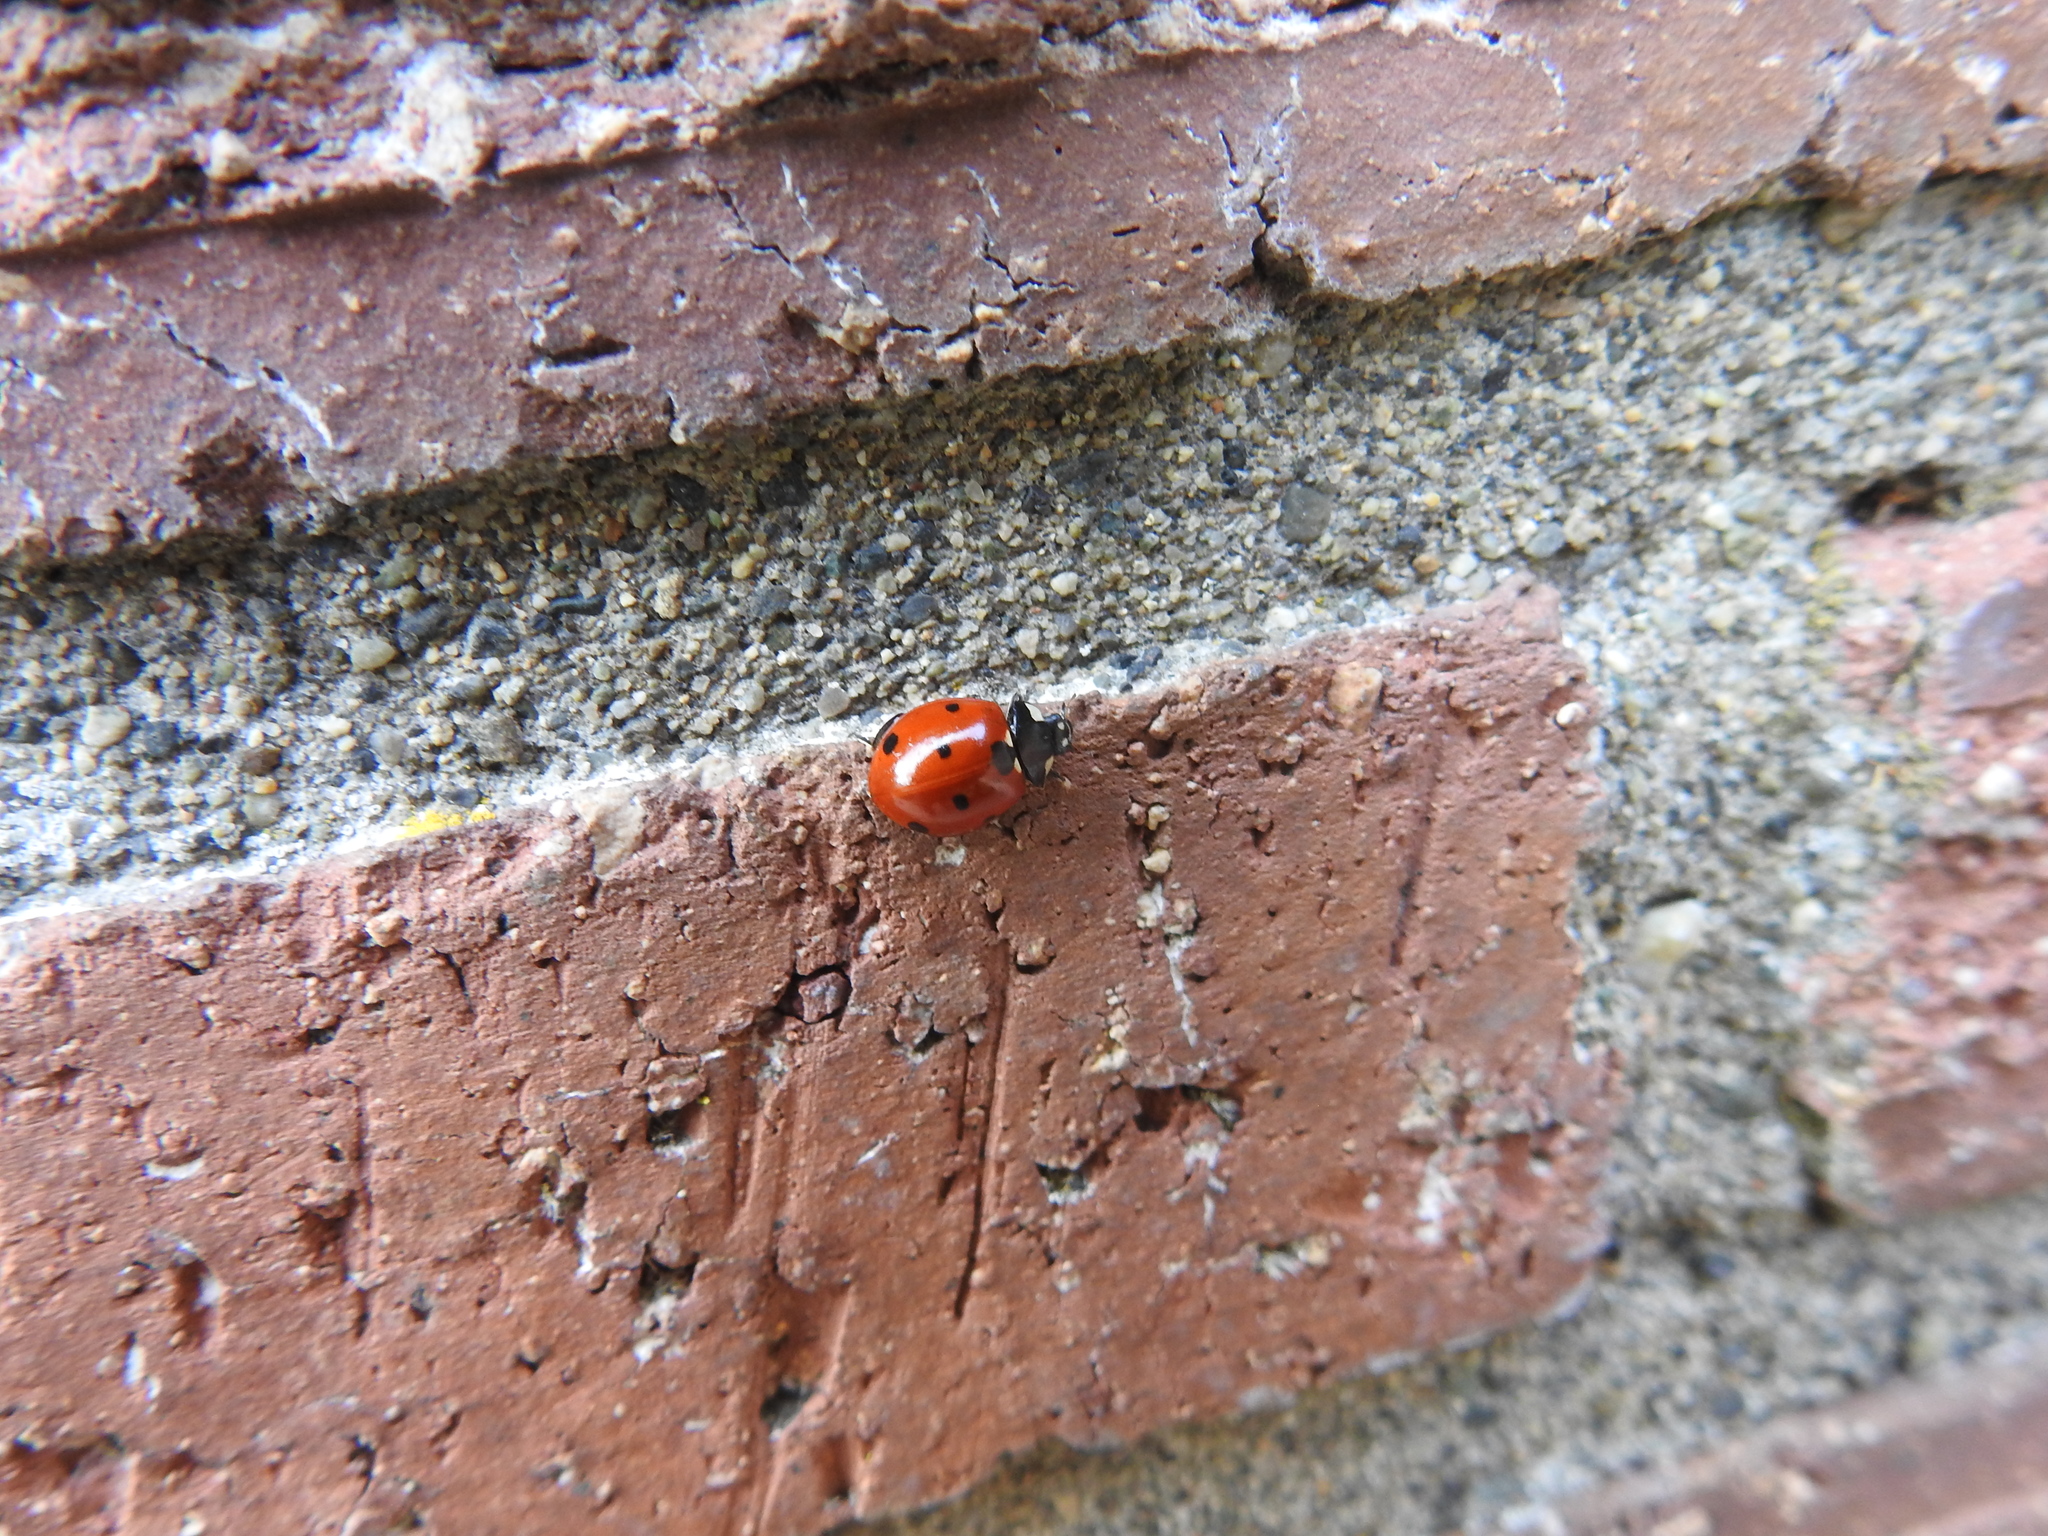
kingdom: Animalia
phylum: Arthropoda
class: Insecta
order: Coleoptera
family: Coccinellidae
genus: Coccinella
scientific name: Coccinella septempunctata
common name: Sevenspotted lady beetle
